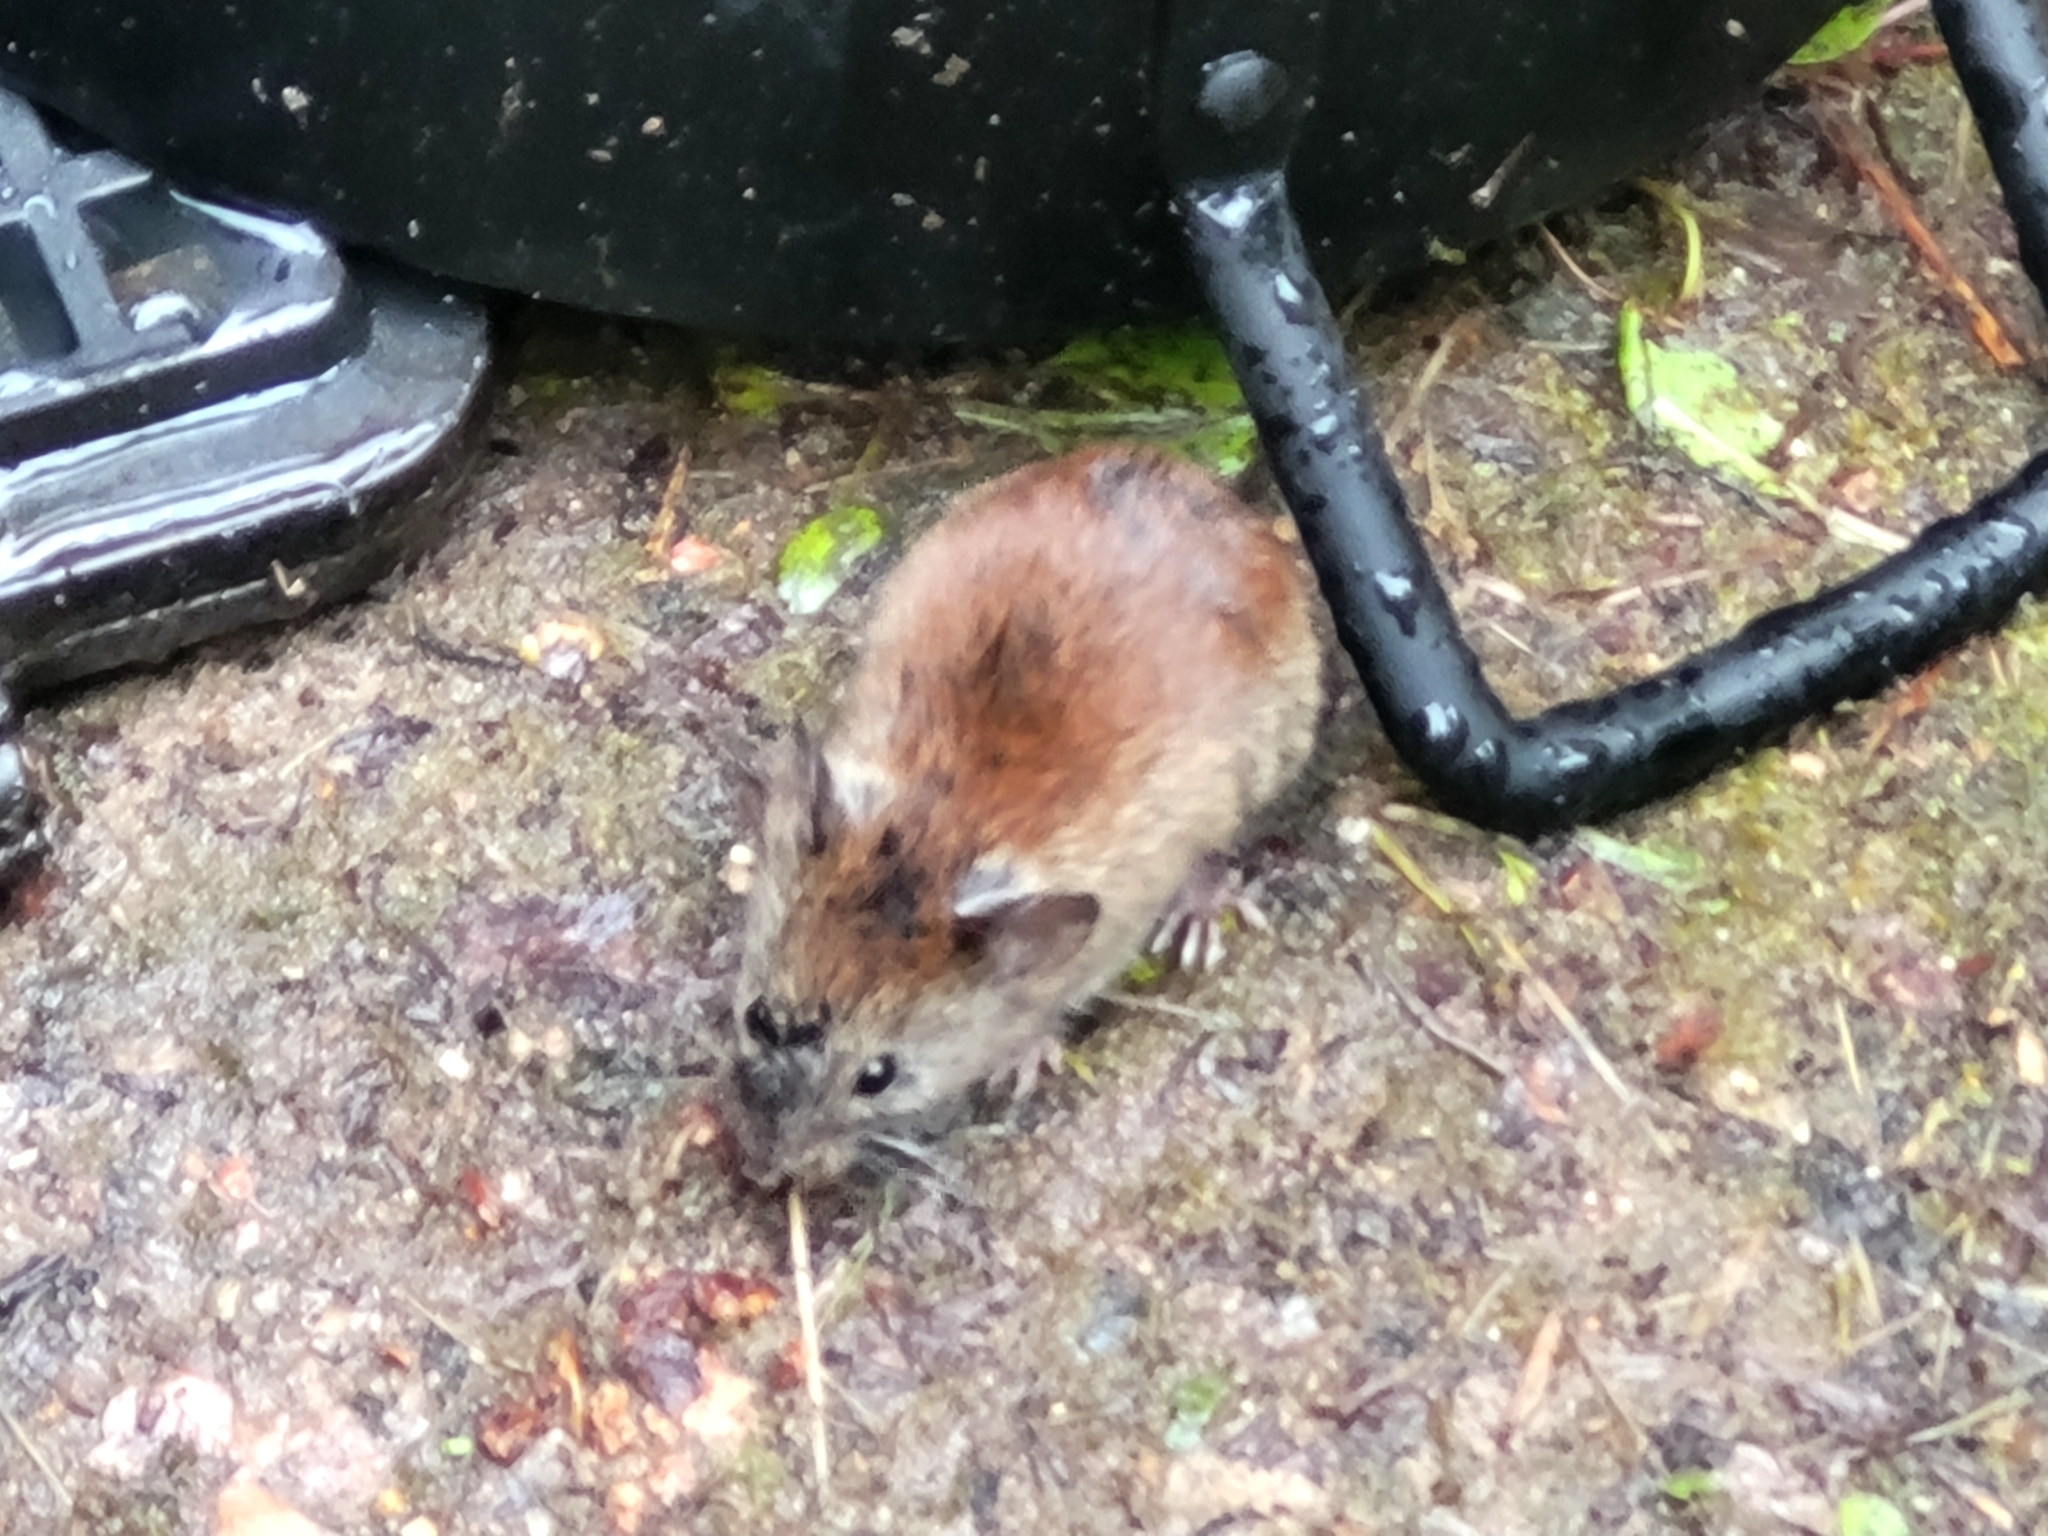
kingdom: Animalia
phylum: Chordata
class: Mammalia
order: Rodentia
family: Cricetidae
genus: Myodes
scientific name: Myodes gapperi
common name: Southern red-backed vole
